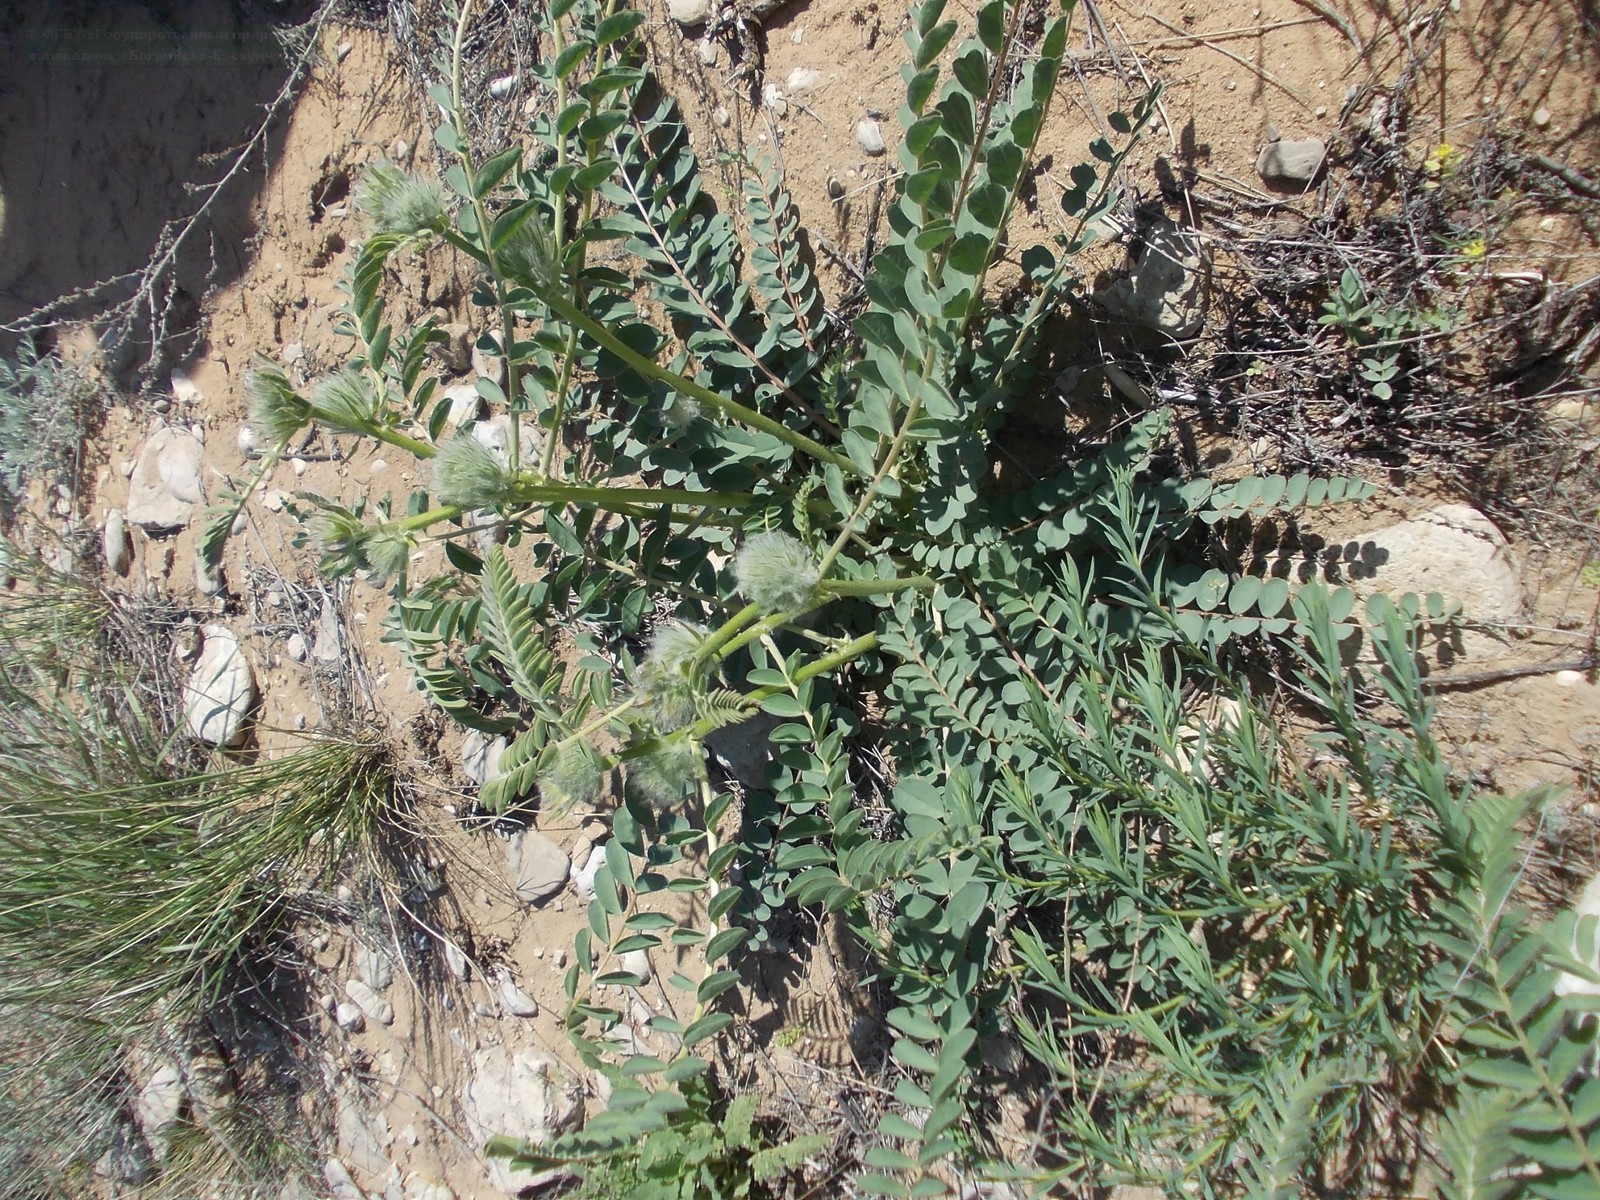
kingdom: Plantae
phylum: Tracheophyta
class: Magnoliopsida
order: Fabales
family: Fabaceae
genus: Astragalus
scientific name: Astragalus vulpinus
